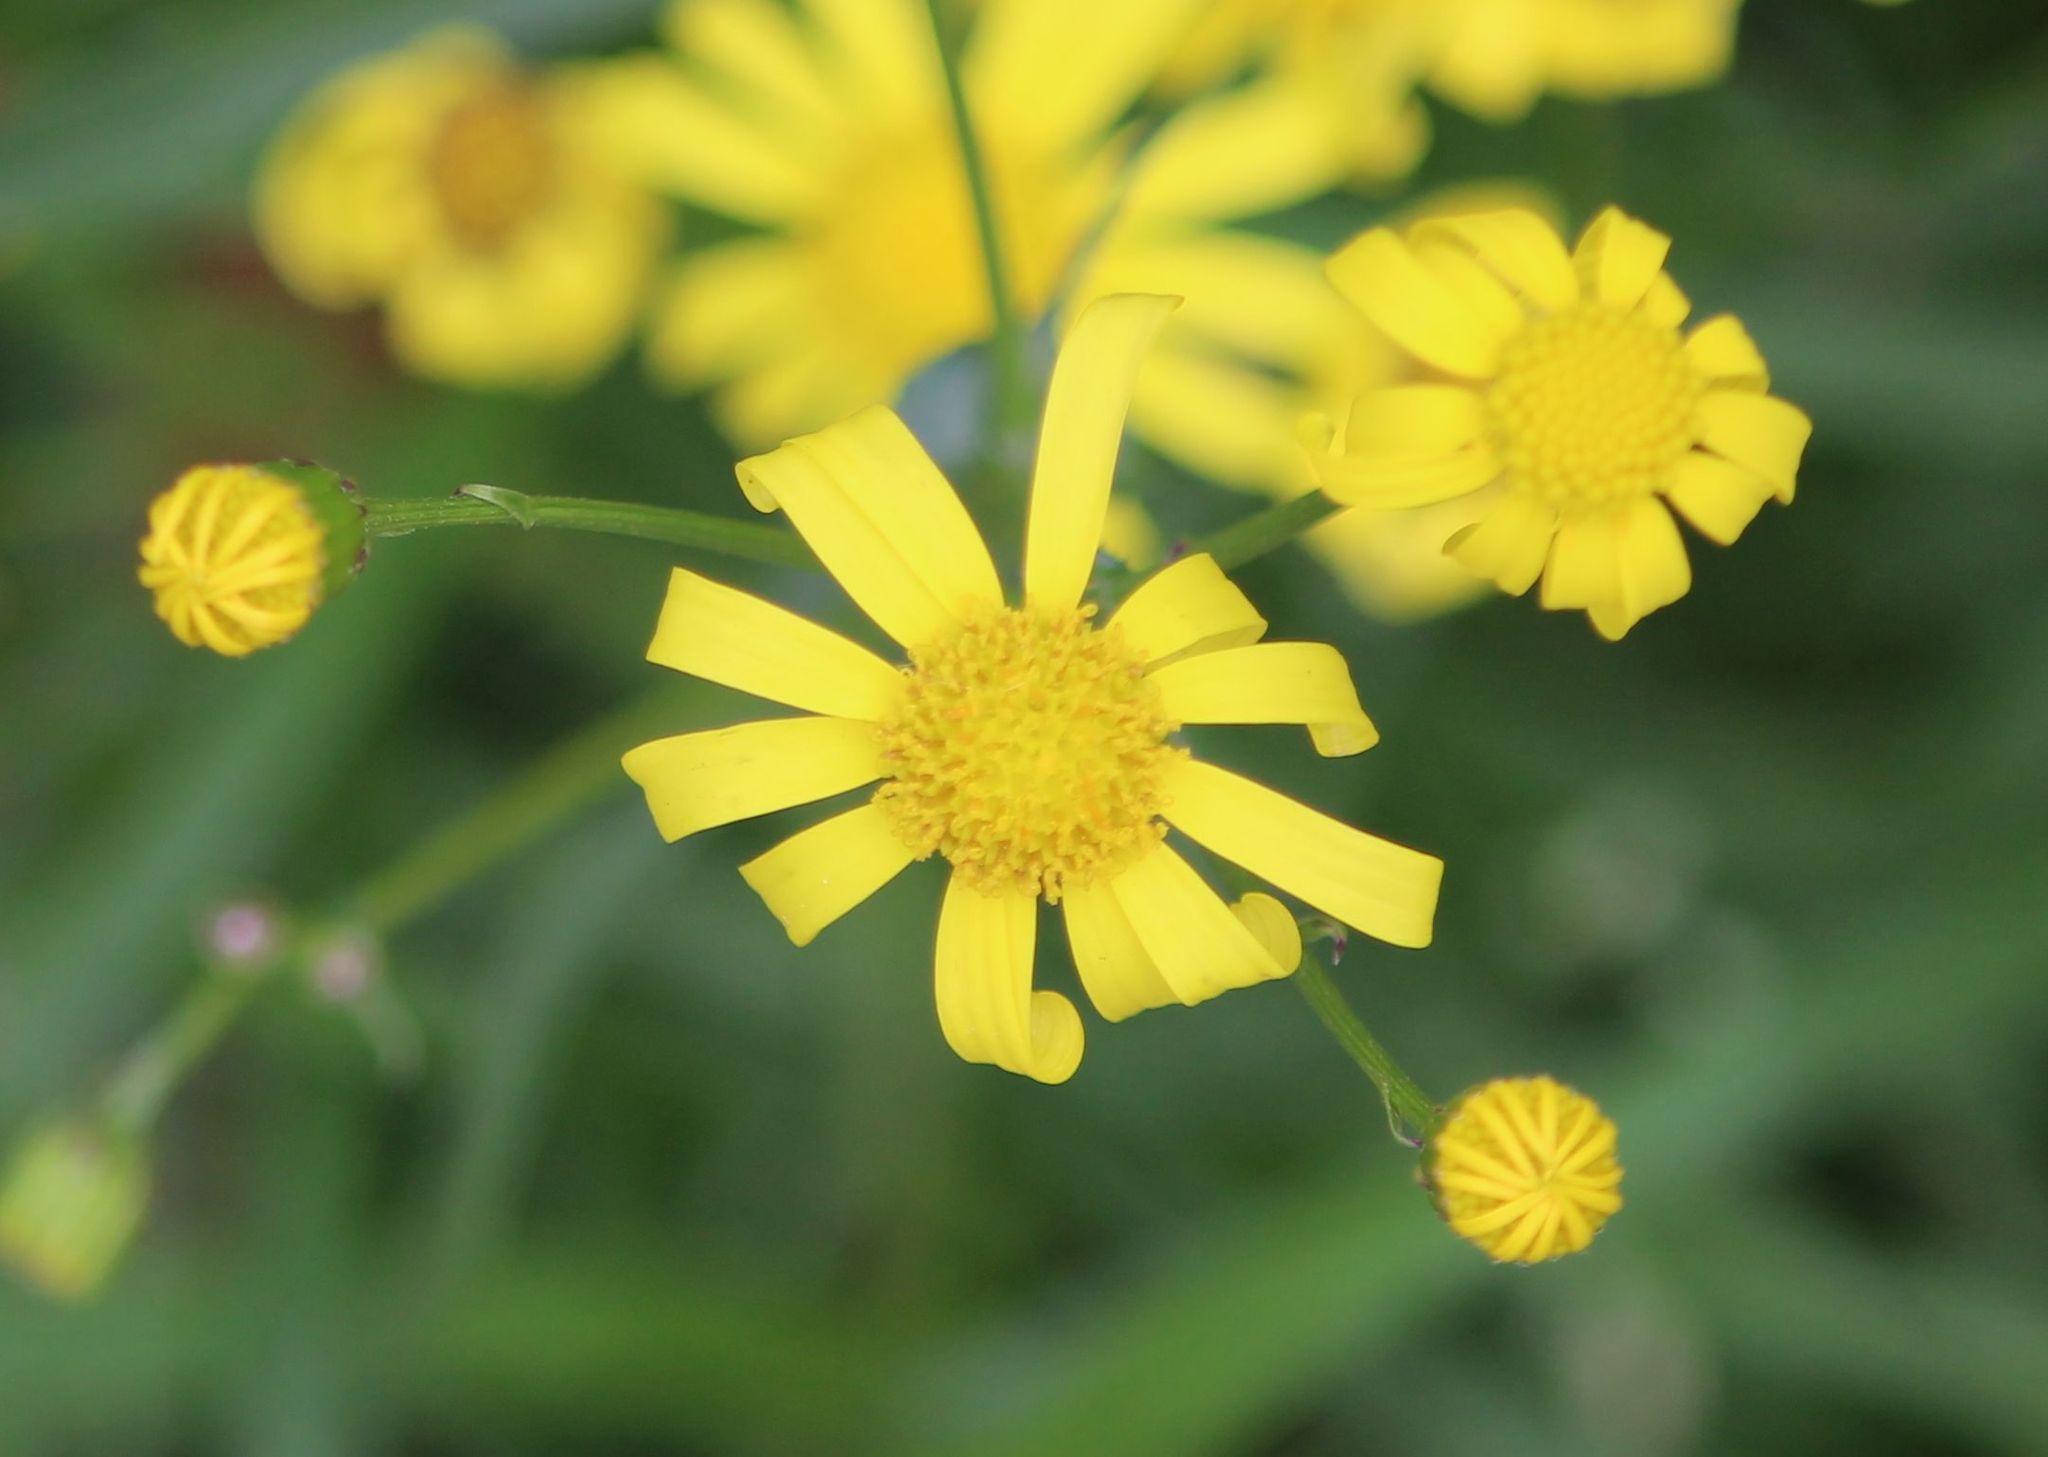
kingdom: Plantae
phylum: Tracheophyta
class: Magnoliopsida
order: Asterales
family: Asteraceae
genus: Senecio
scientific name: Senecio inaequidens
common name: Narrow-leaved ragwort
